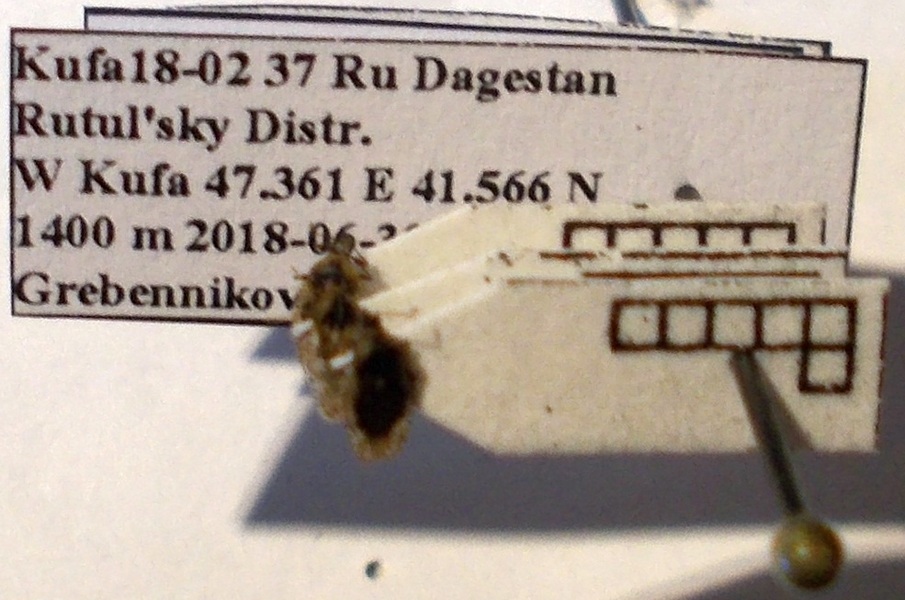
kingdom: Animalia
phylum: Arthropoda
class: Insecta
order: Hemiptera
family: Tingidae
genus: Dictyla
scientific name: Dictyla platyoma
